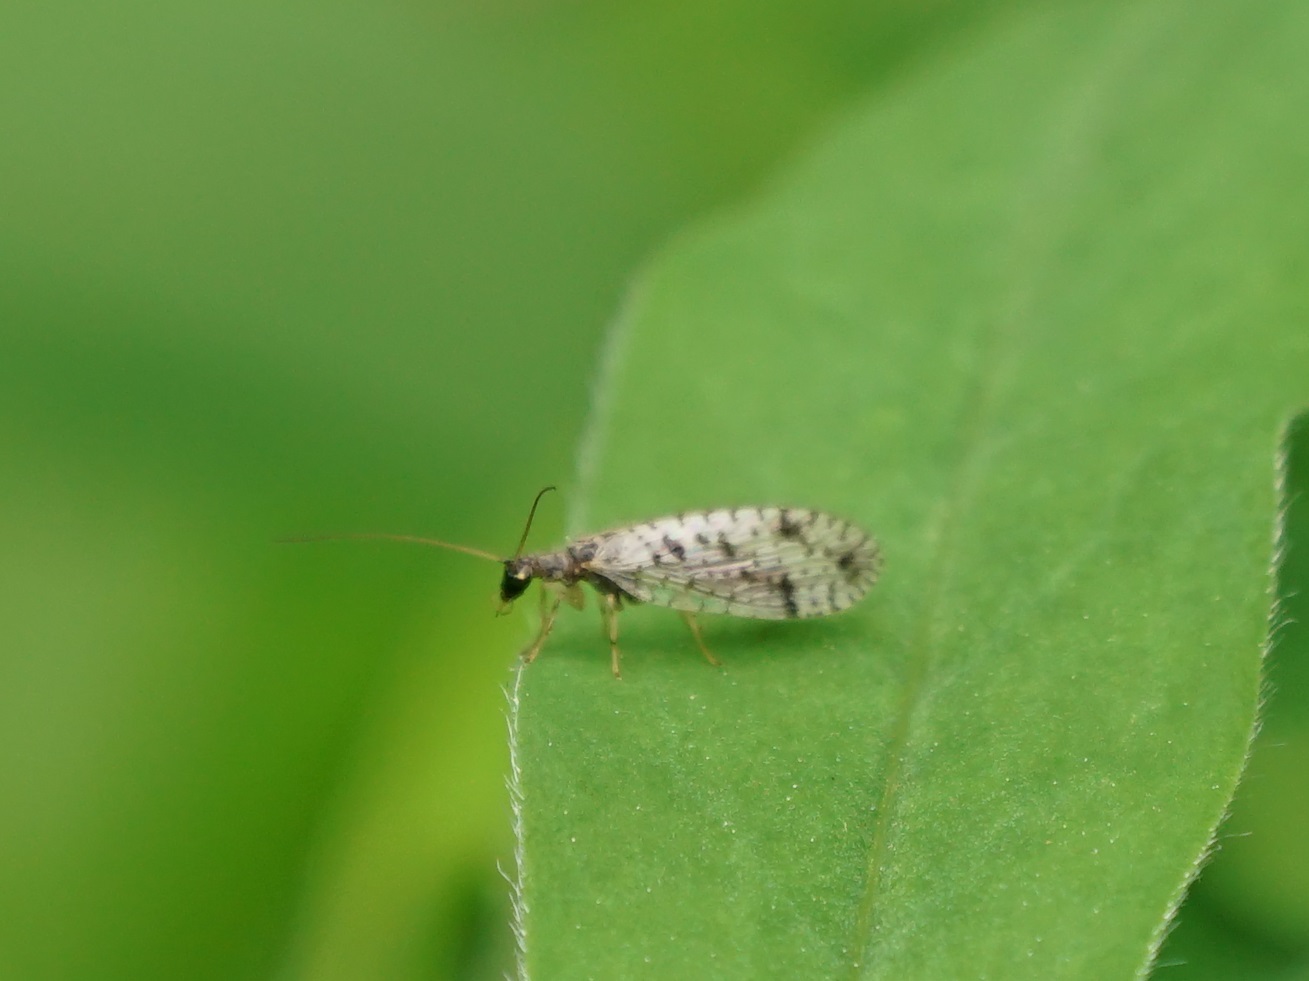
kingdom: Animalia
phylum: Arthropoda
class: Insecta
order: Neuroptera
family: Hemerobiidae
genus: Micromus
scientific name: Micromus variegatus
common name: Brown lacewing
